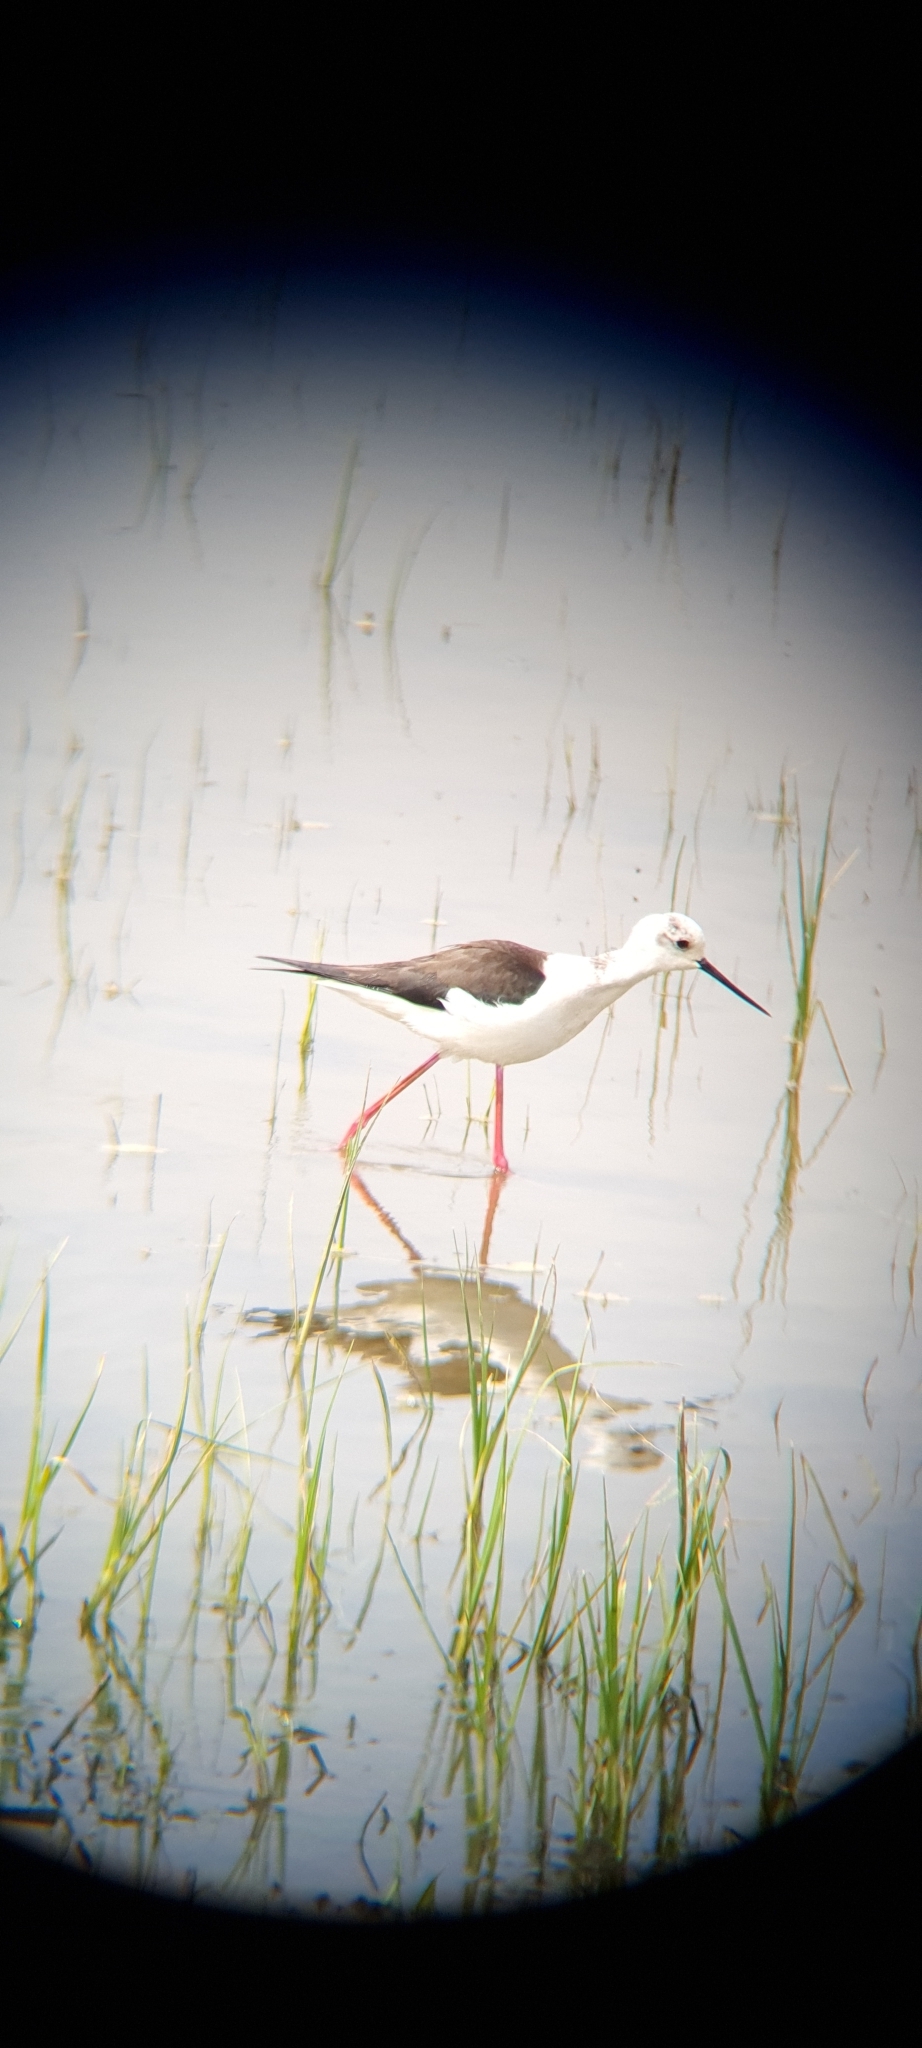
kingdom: Animalia
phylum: Chordata
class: Aves
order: Charadriiformes
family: Recurvirostridae
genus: Himantopus
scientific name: Himantopus himantopus
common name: Black-winged stilt
